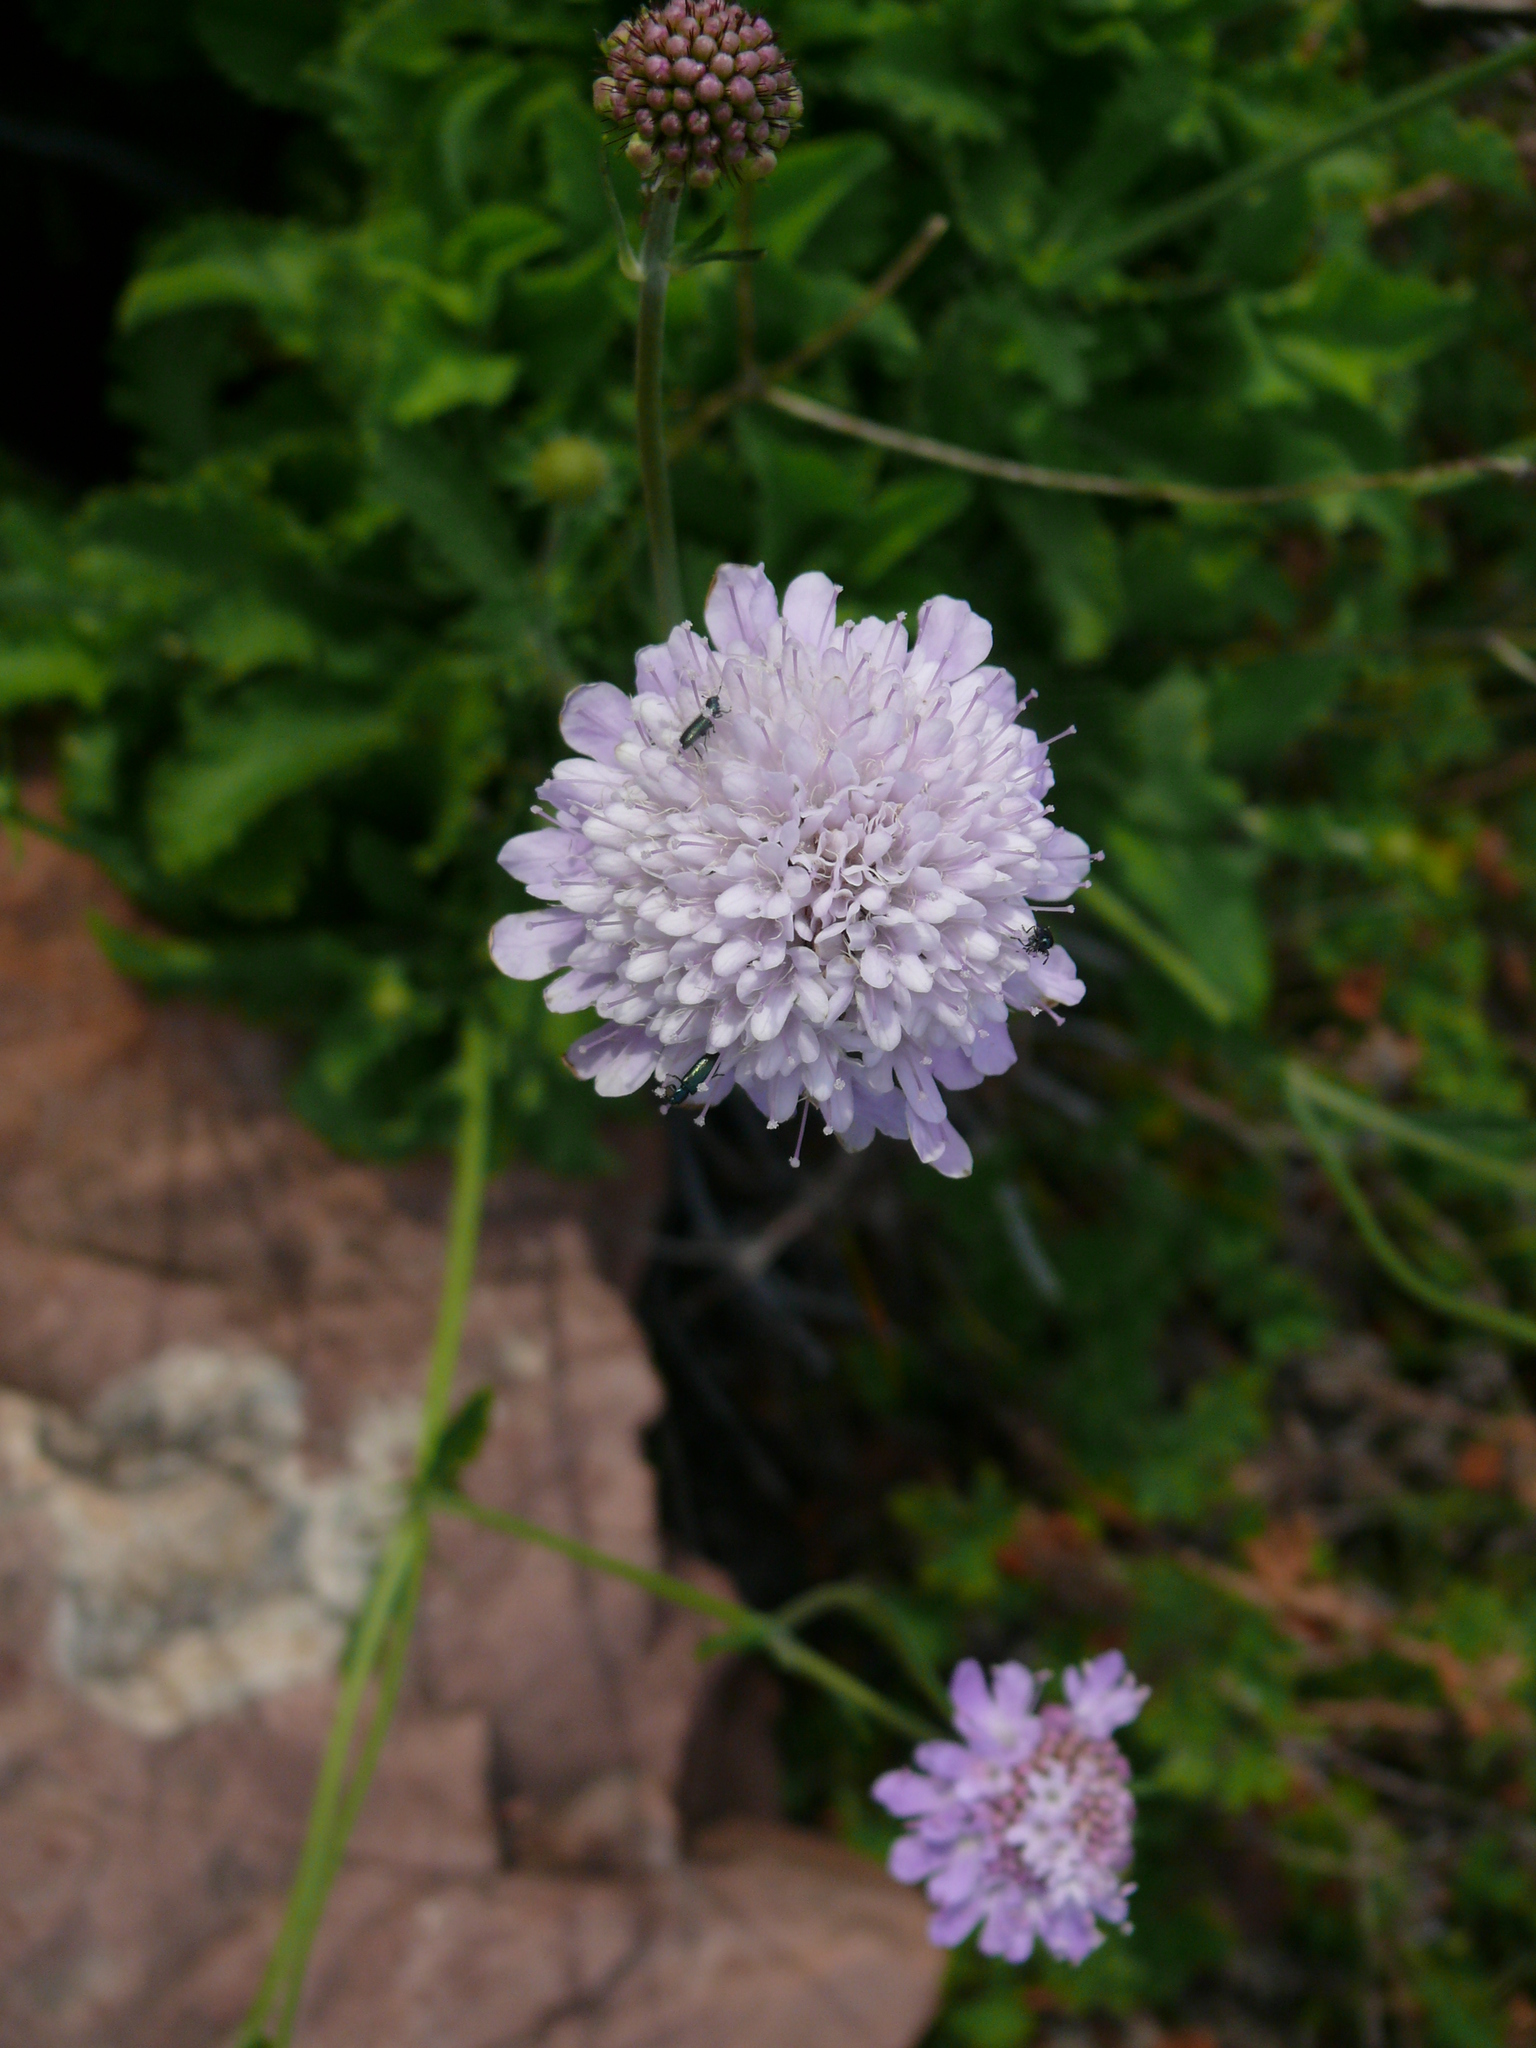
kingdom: Plantae
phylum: Tracheophyta
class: Magnoliopsida
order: Dipsacales
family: Caprifoliaceae
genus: Scabiosa
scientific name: Scabiosa africana
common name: Cape scabious
